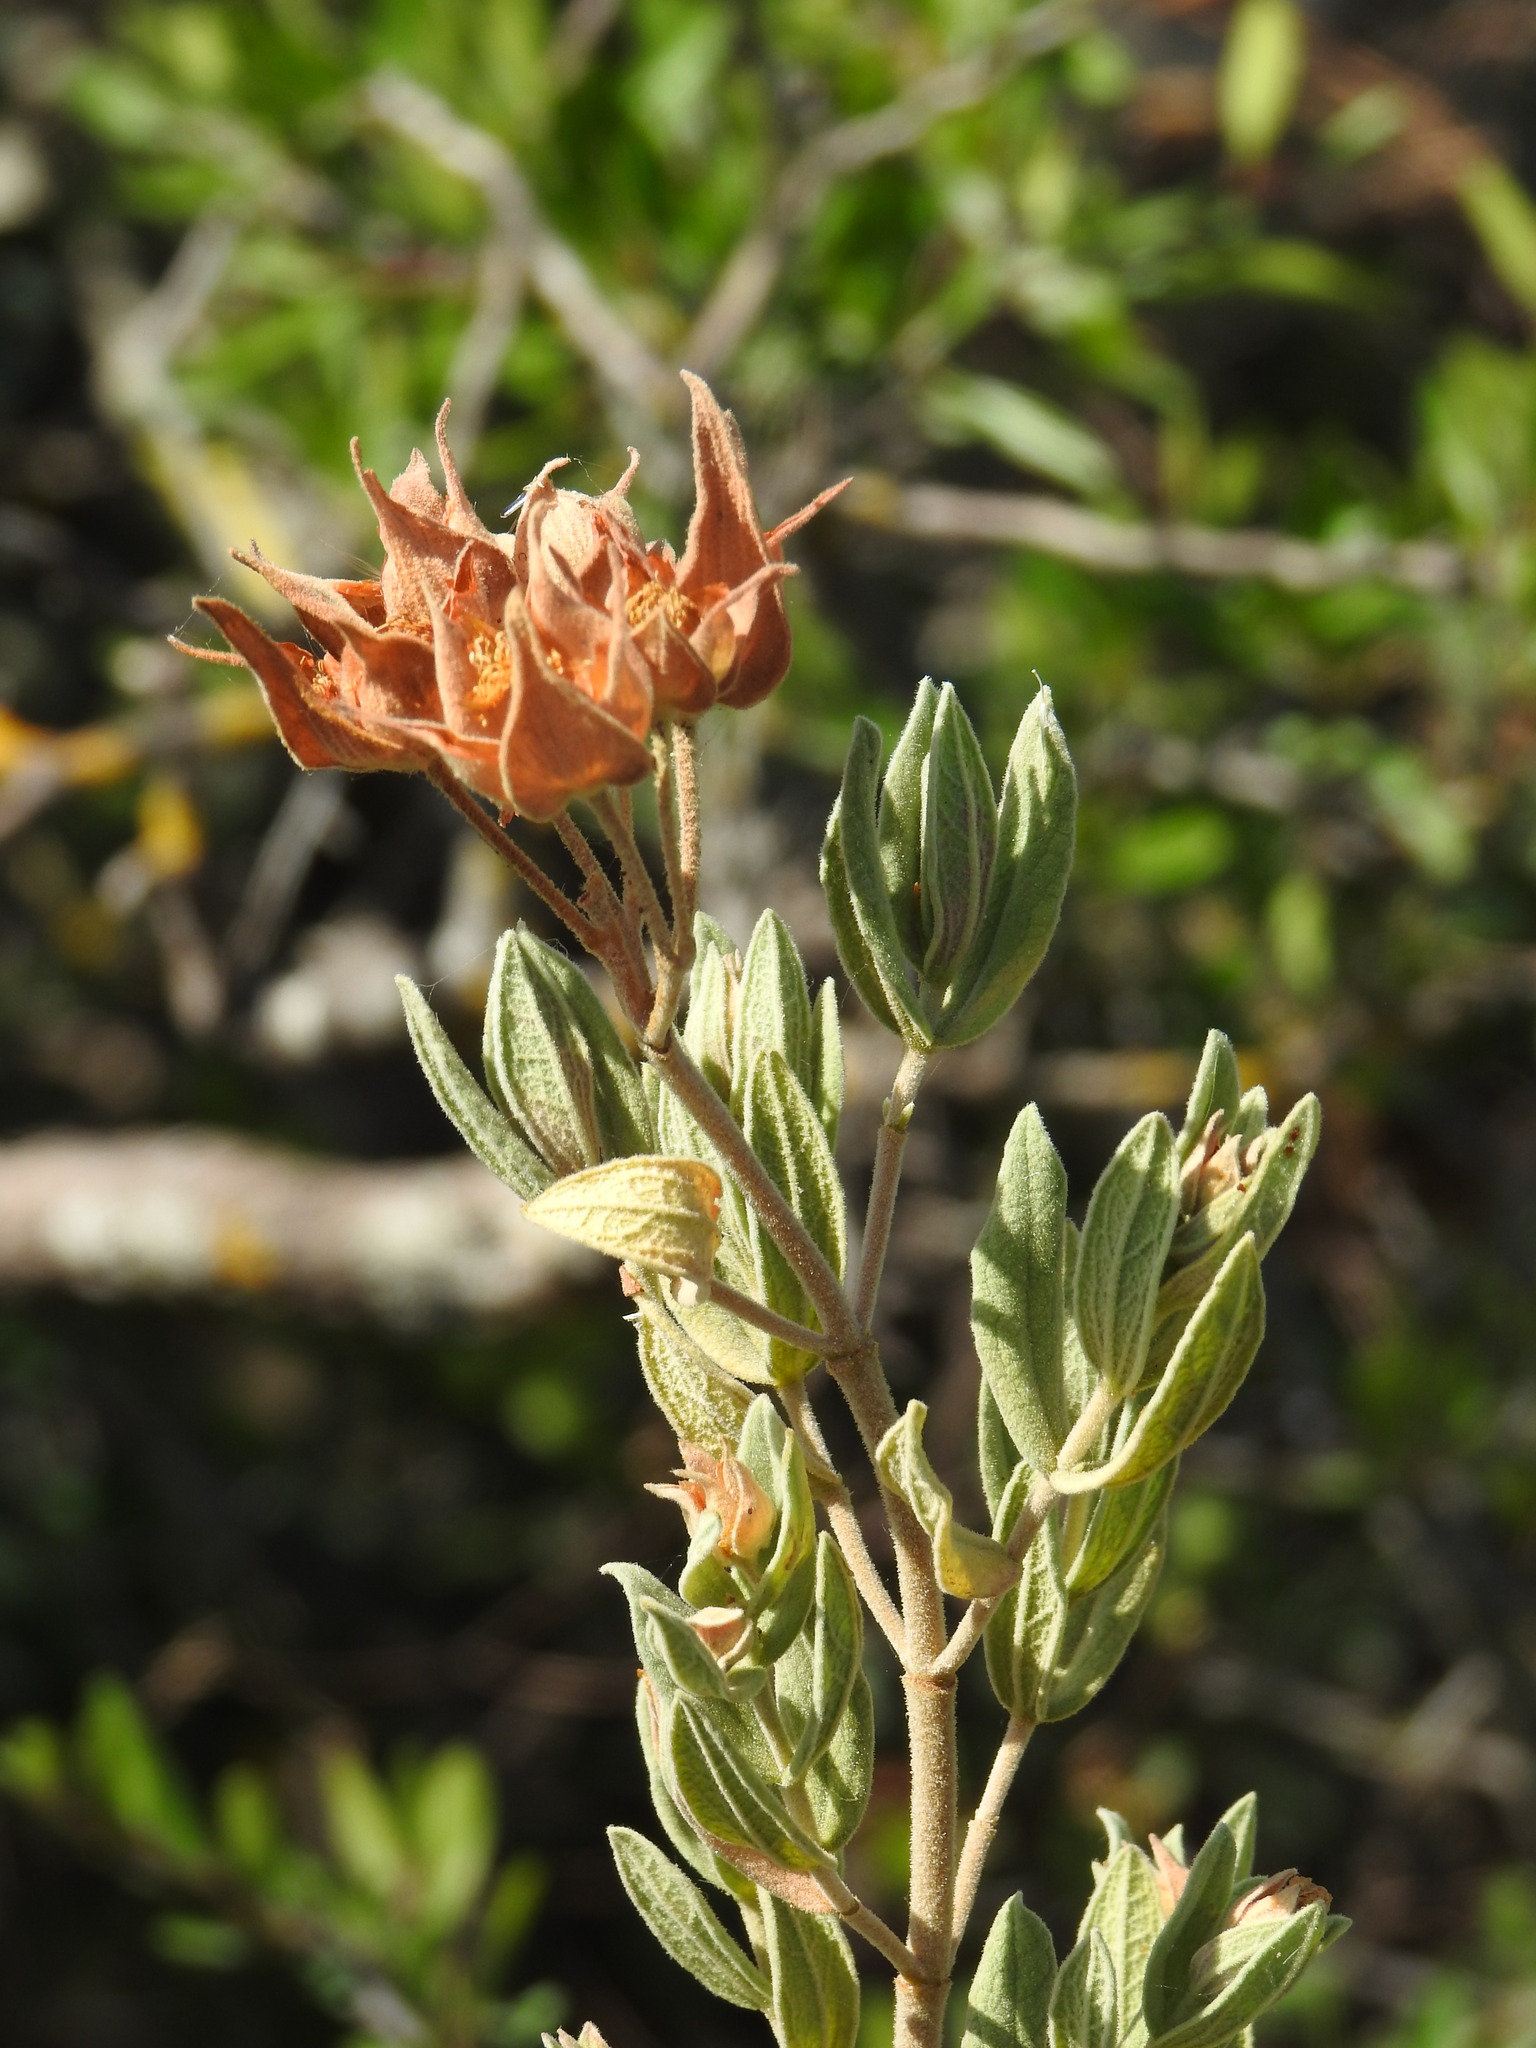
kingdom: Plantae
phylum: Tracheophyta
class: Magnoliopsida
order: Malvales
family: Cistaceae
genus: Cistus
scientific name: Cistus albidus
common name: White-leaf rock-rose
